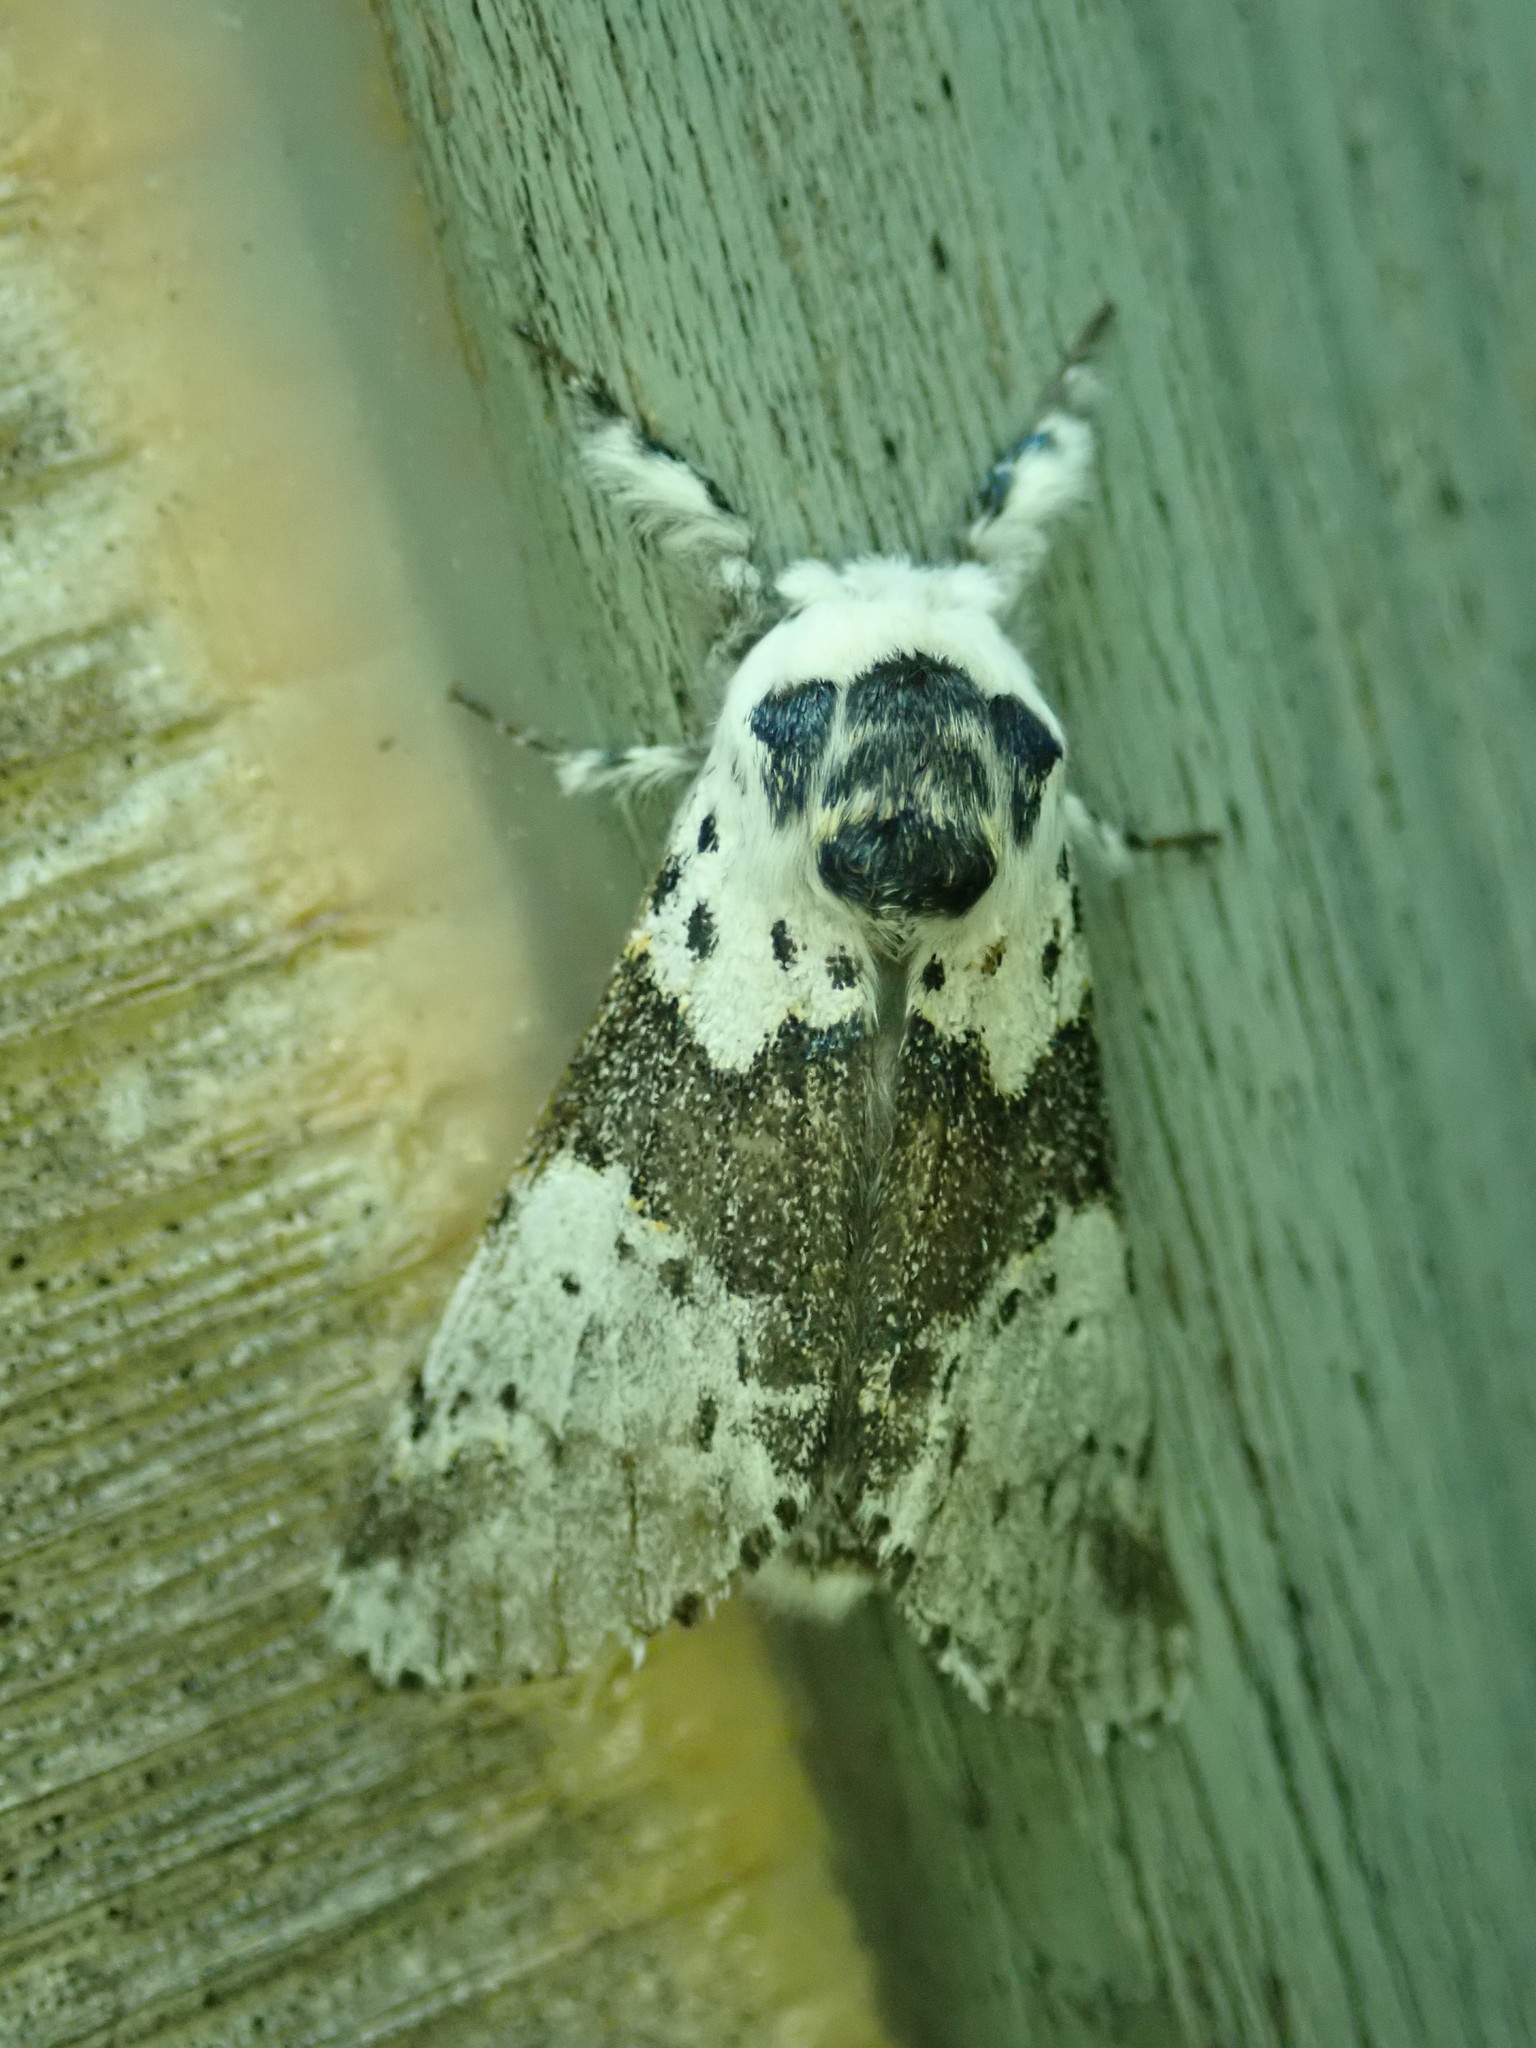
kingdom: Animalia
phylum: Arthropoda
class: Insecta
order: Lepidoptera
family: Notodontidae
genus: Furcula
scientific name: Furcula borealis
